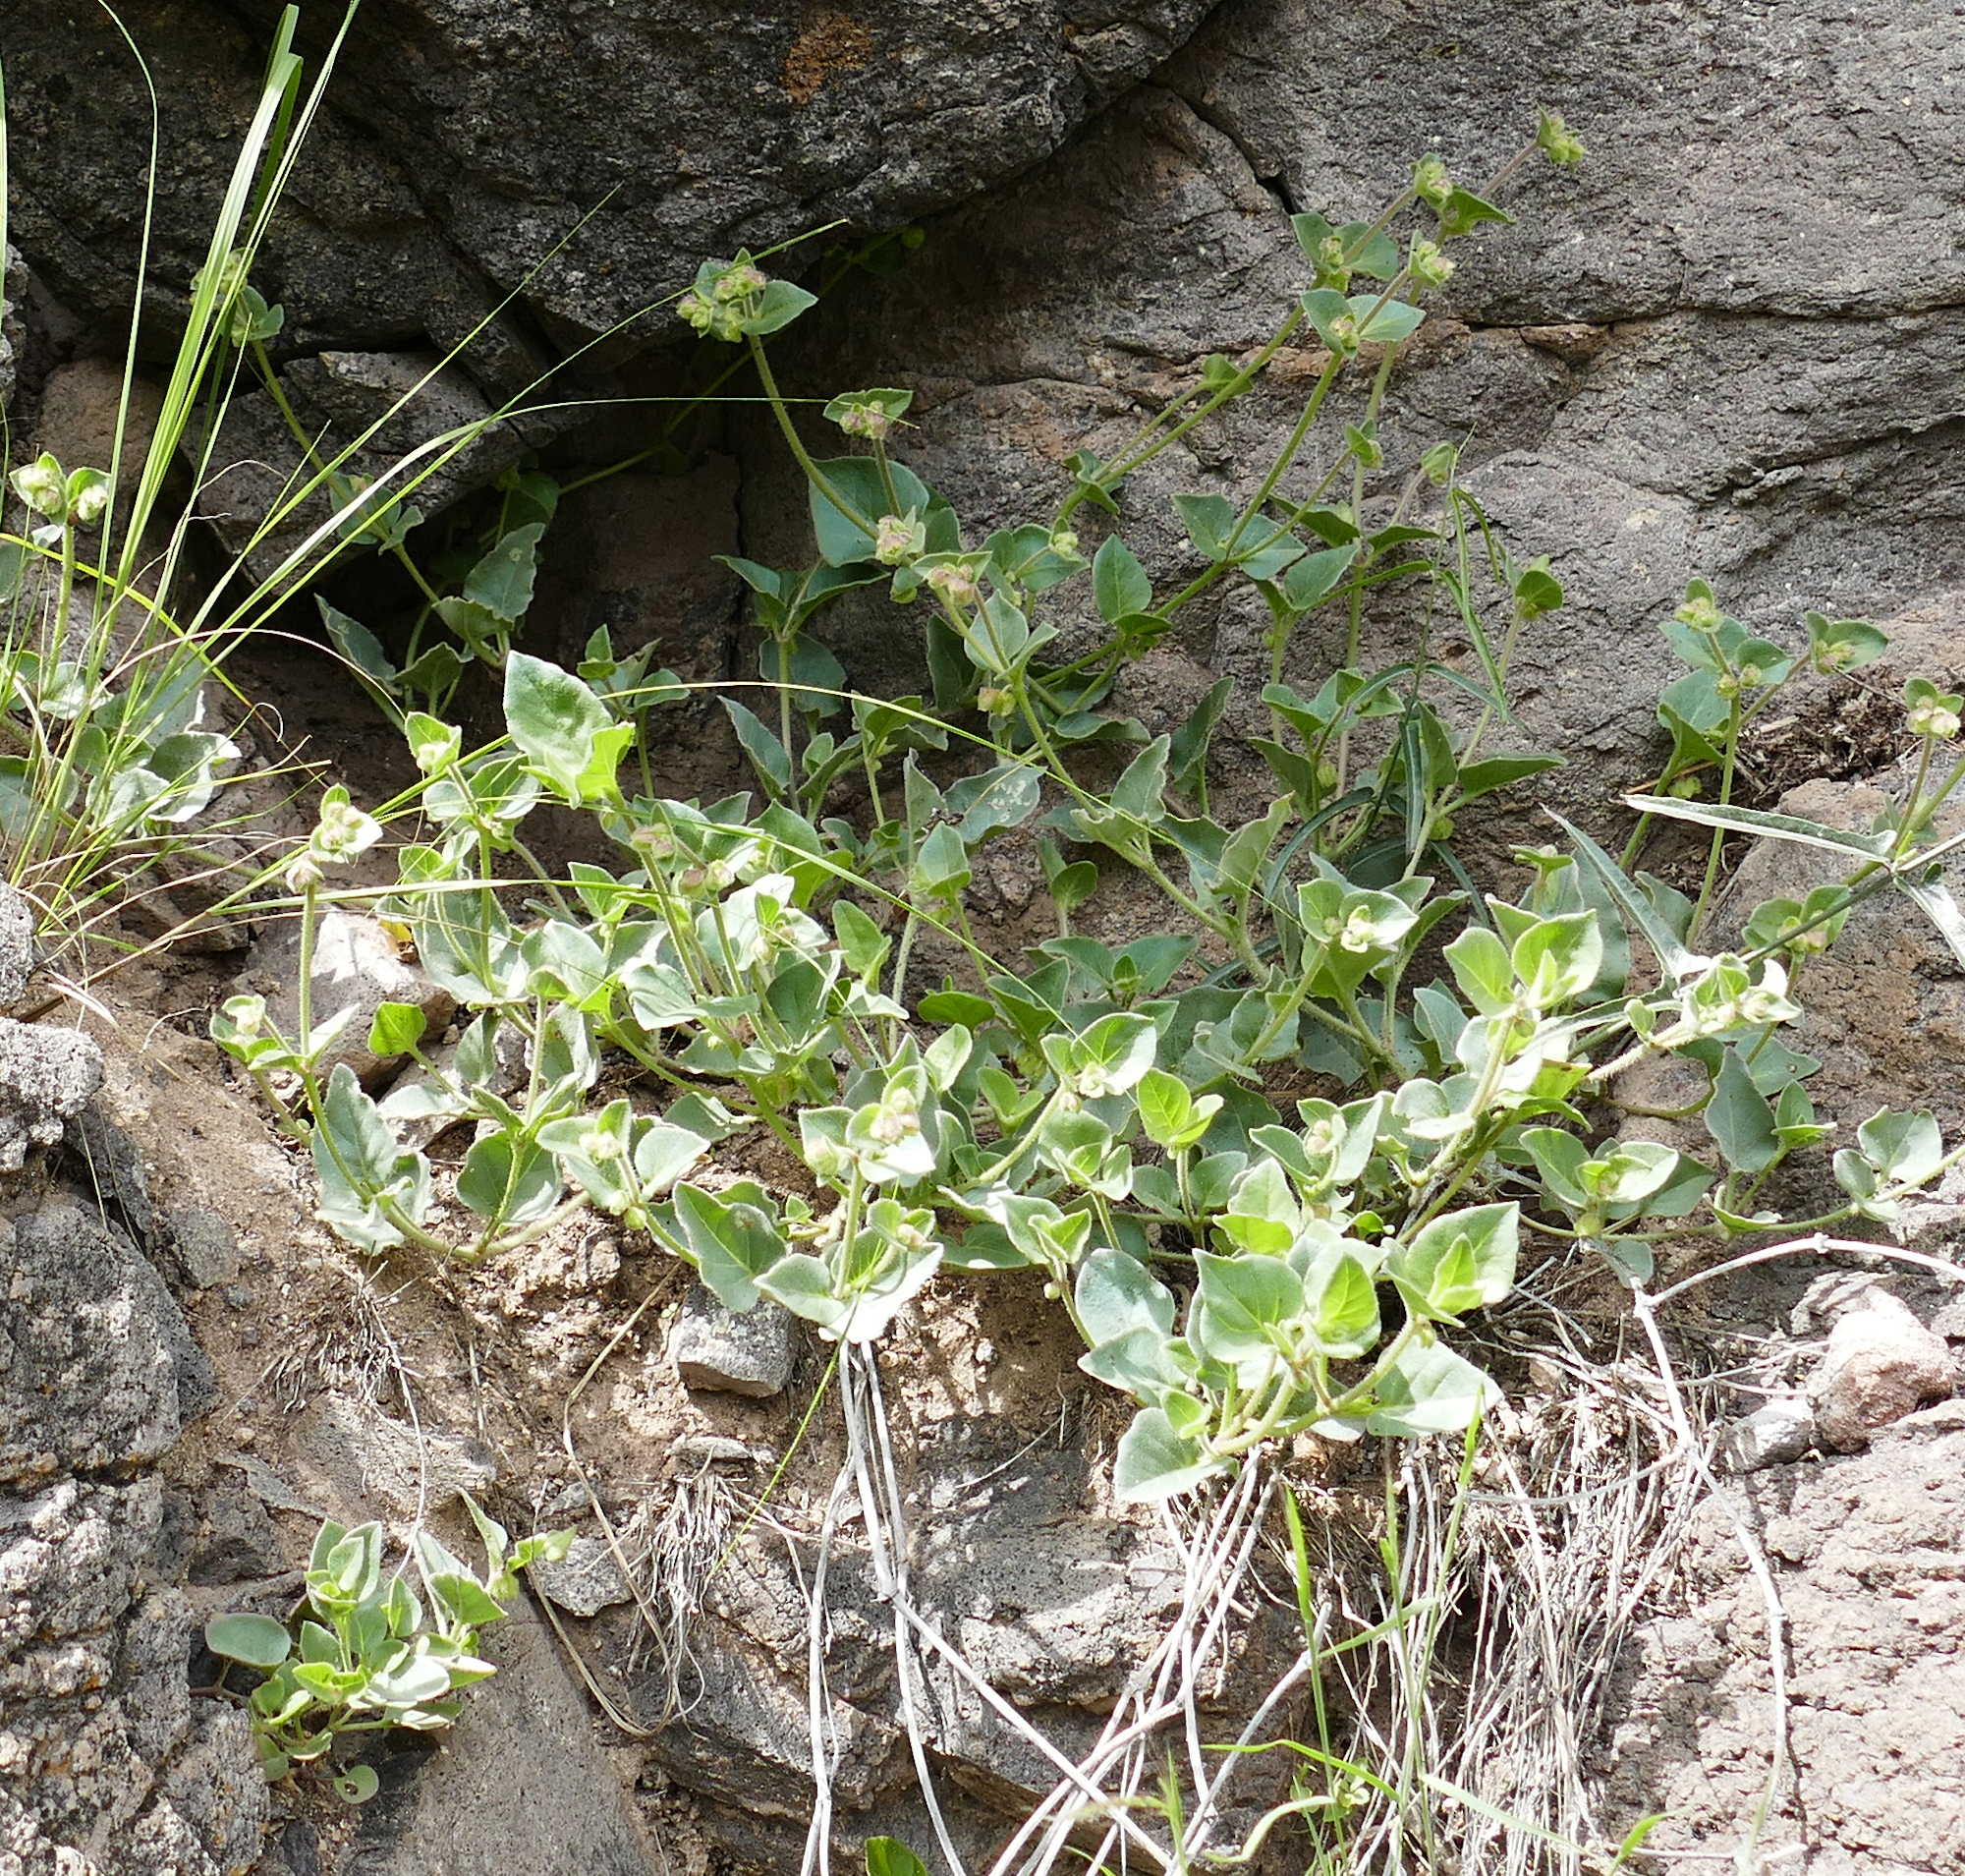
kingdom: Plantae
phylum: Tracheophyta
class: Magnoliopsida
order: Caryophyllales
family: Nyctaginaceae
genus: Mirabilis
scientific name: Mirabilis oxybaphoides
